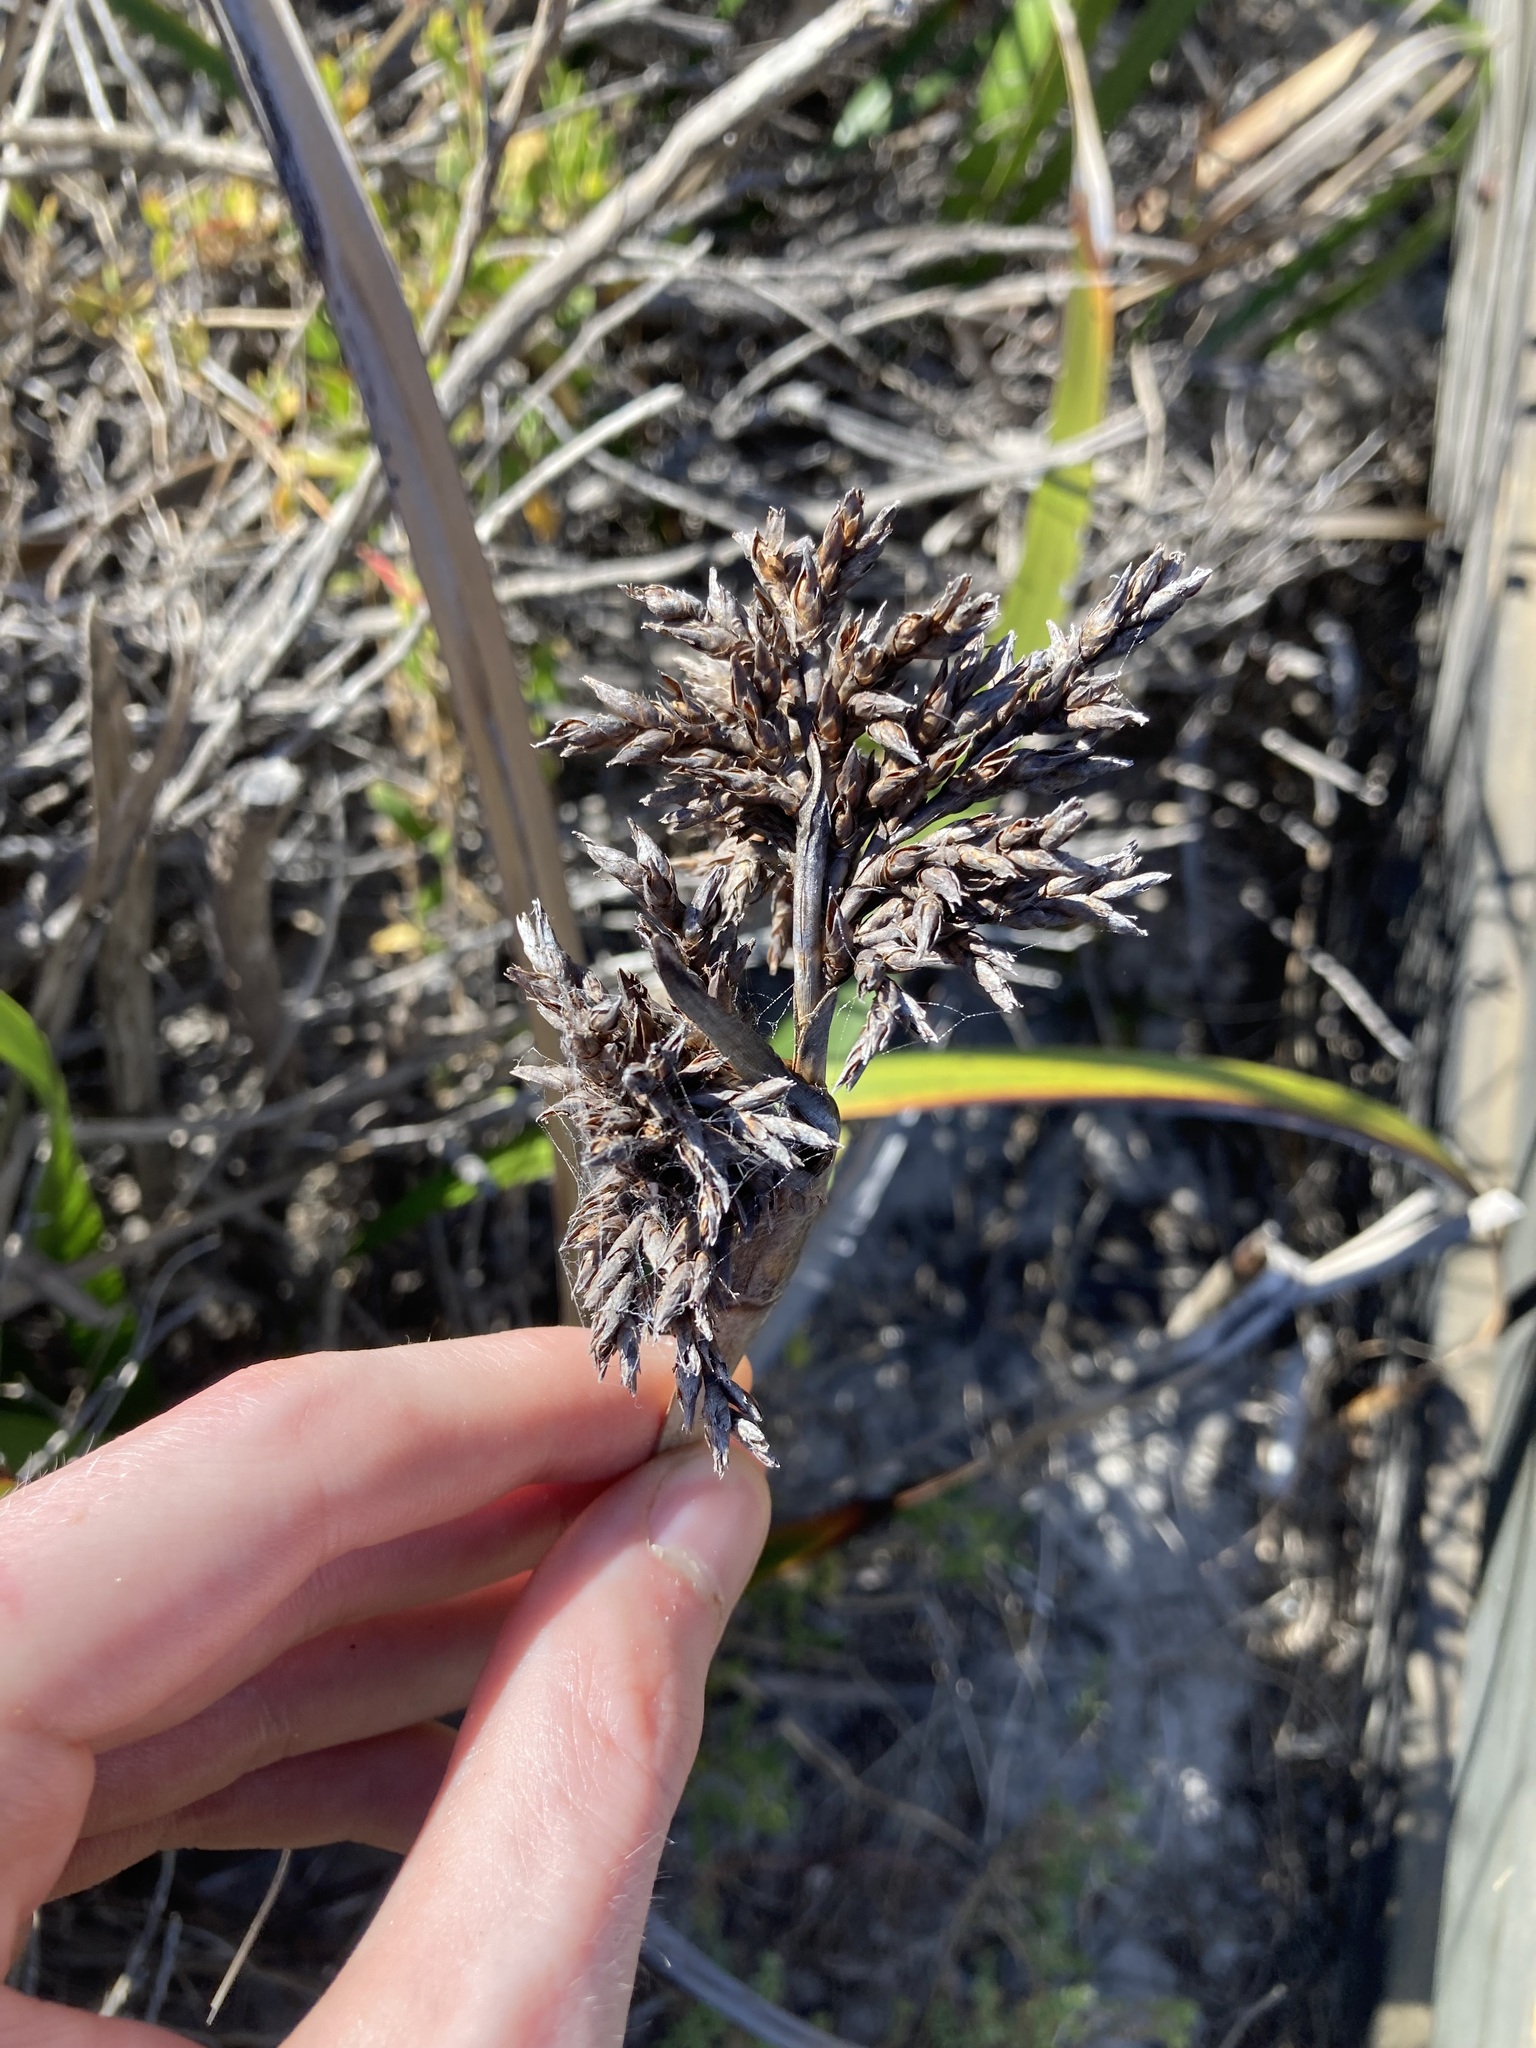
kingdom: Plantae
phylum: Tracheophyta
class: Liliopsida
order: Poales
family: Cyperaceae
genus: Lepidosperma
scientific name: Lepidosperma gladiatum
